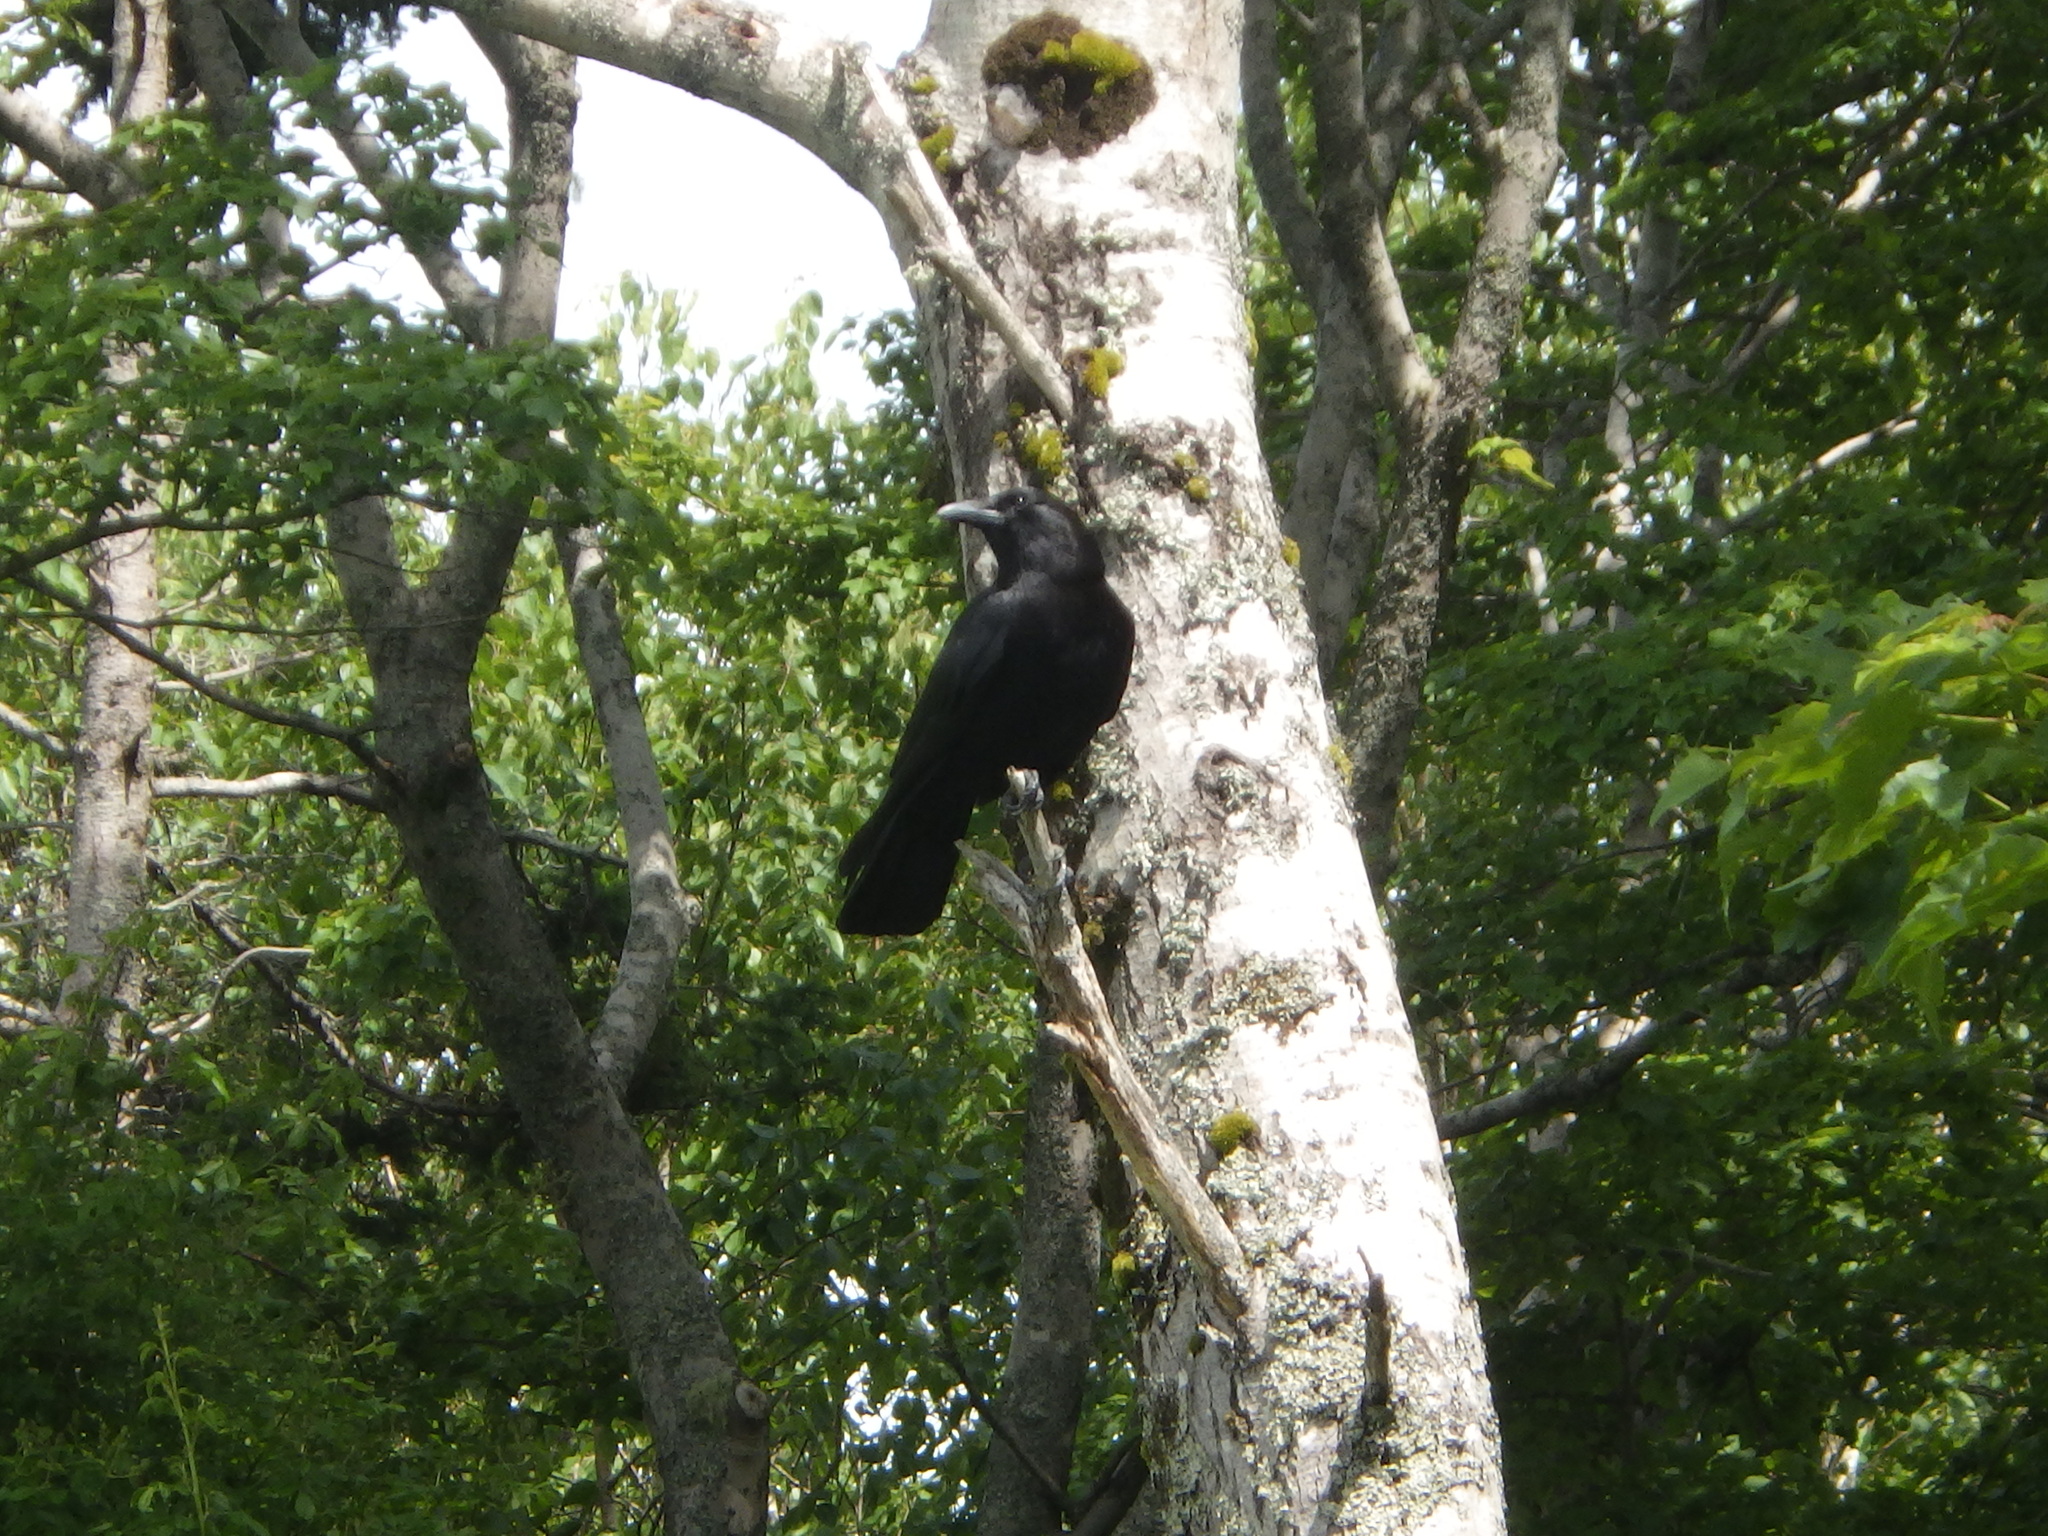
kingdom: Animalia
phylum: Chordata
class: Aves
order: Passeriformes
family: Corvidae
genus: Corvus
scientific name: Corvus brachyrhynchos
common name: American crow
